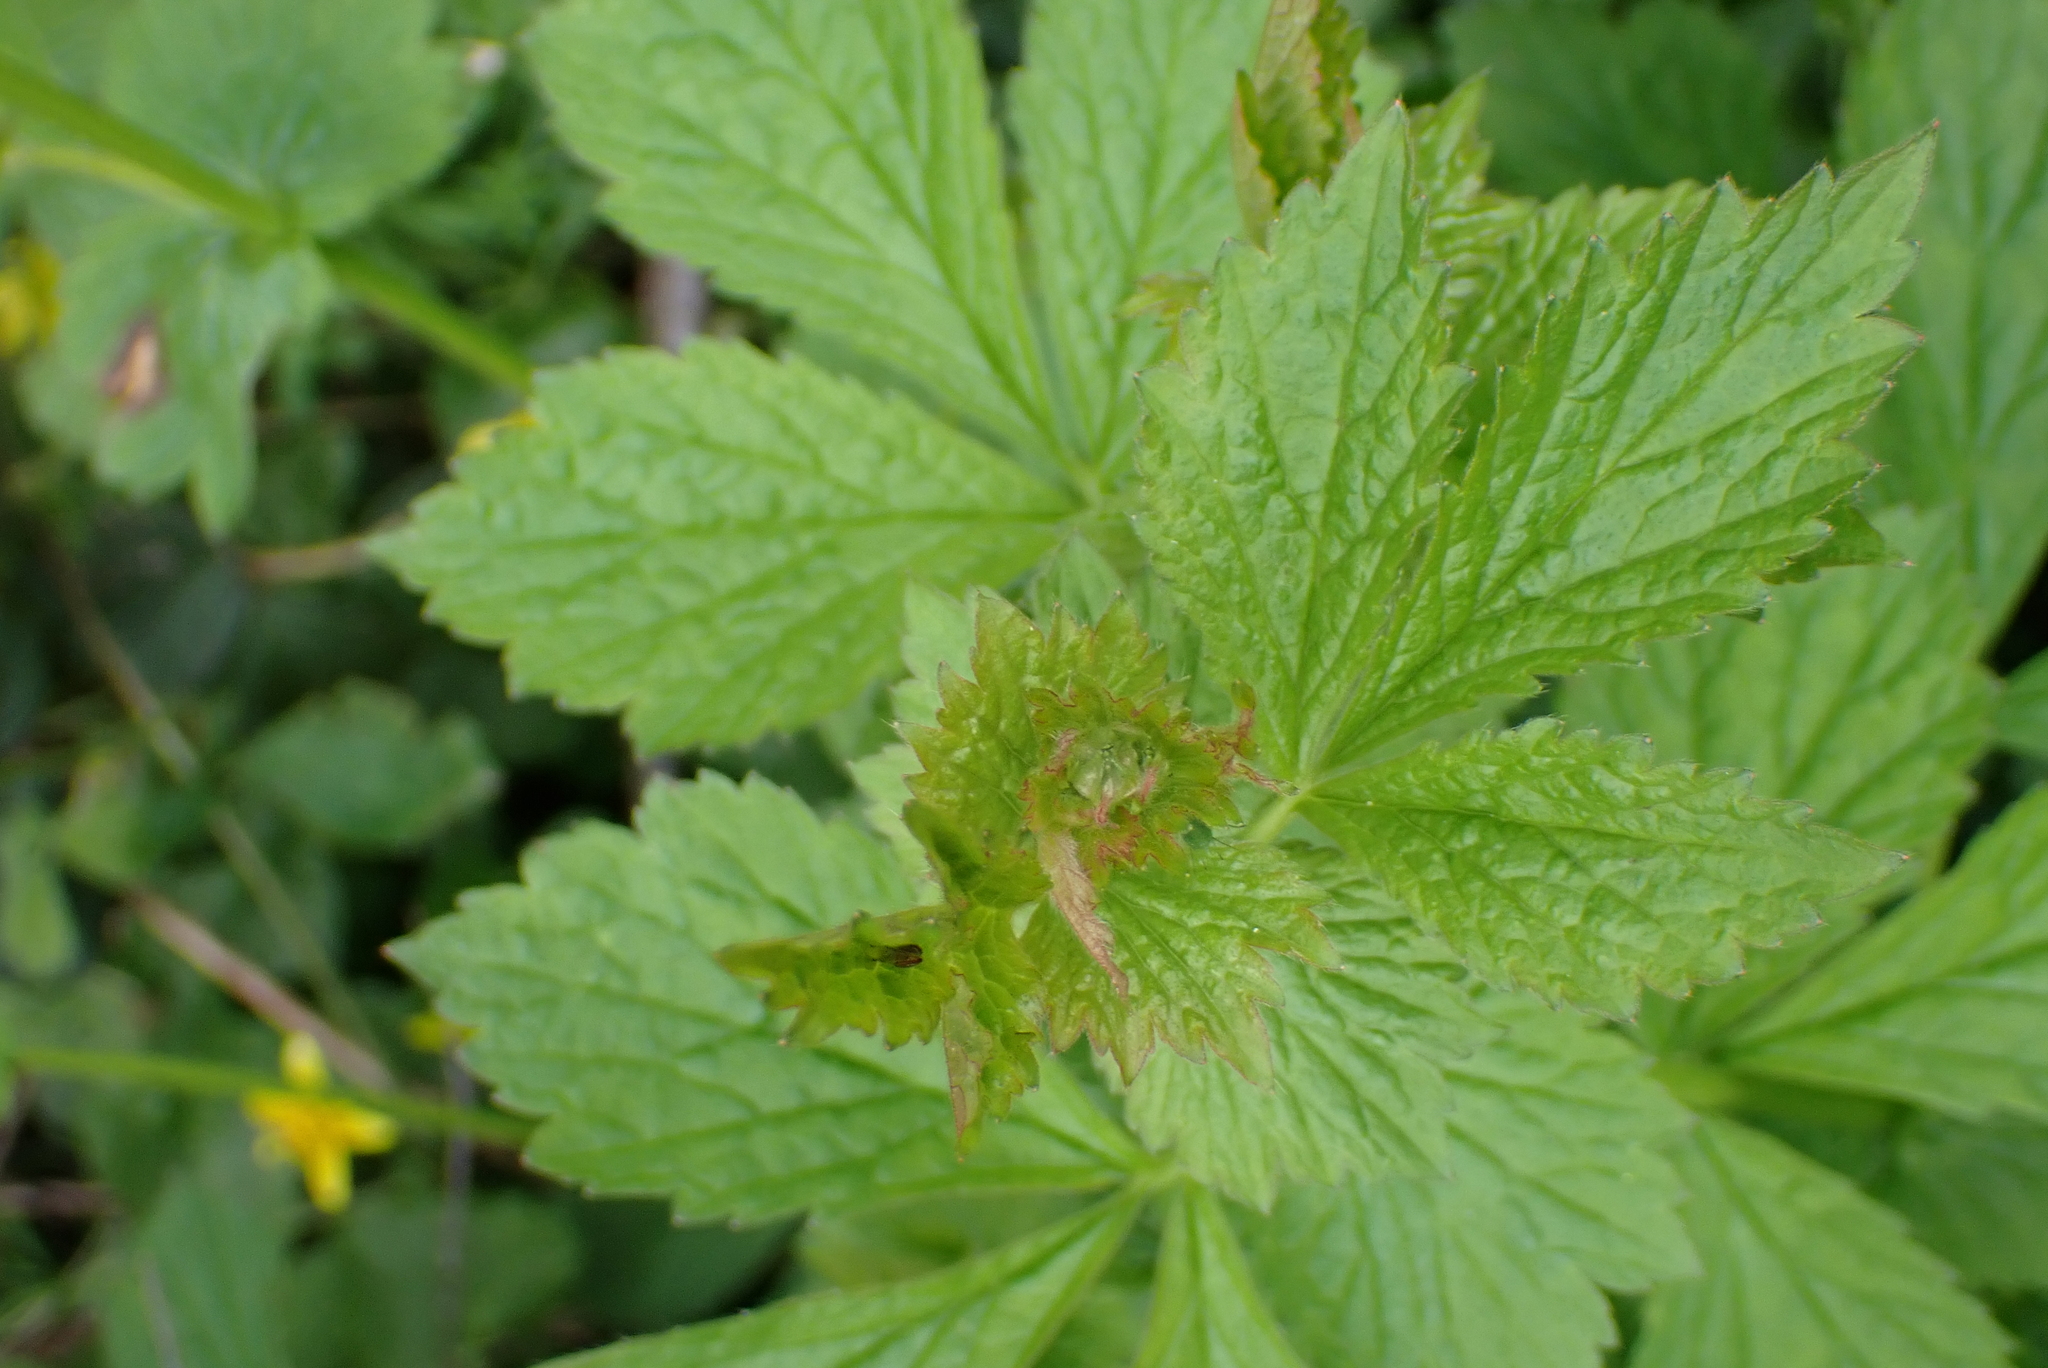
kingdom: Plantae
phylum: Tracheophyta
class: Magnoliopsida
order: Rosales
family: Rosaceae
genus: Geum
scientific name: Geum urbanum
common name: Wood avens
